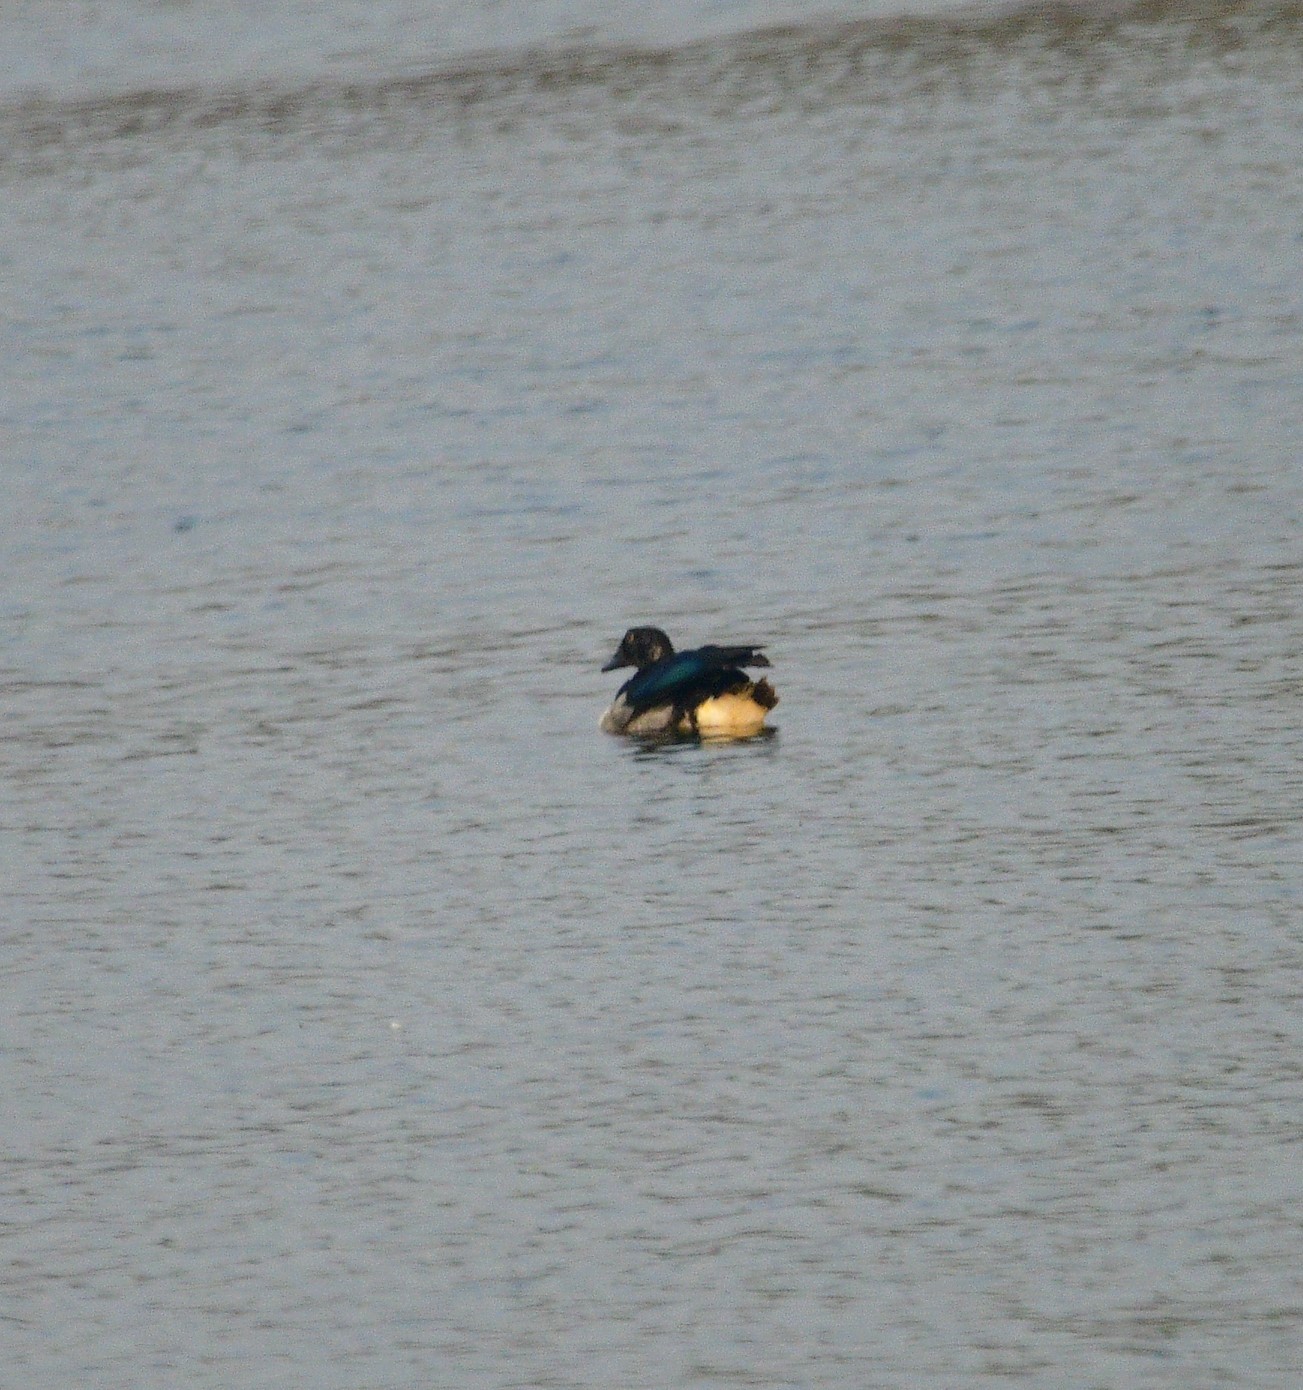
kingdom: Animalia
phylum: Chordata
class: Aves
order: Anseriformes
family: Anatidae
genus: Sarkidiornis
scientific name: Sarkidiornis melanotos
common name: Comb duck
